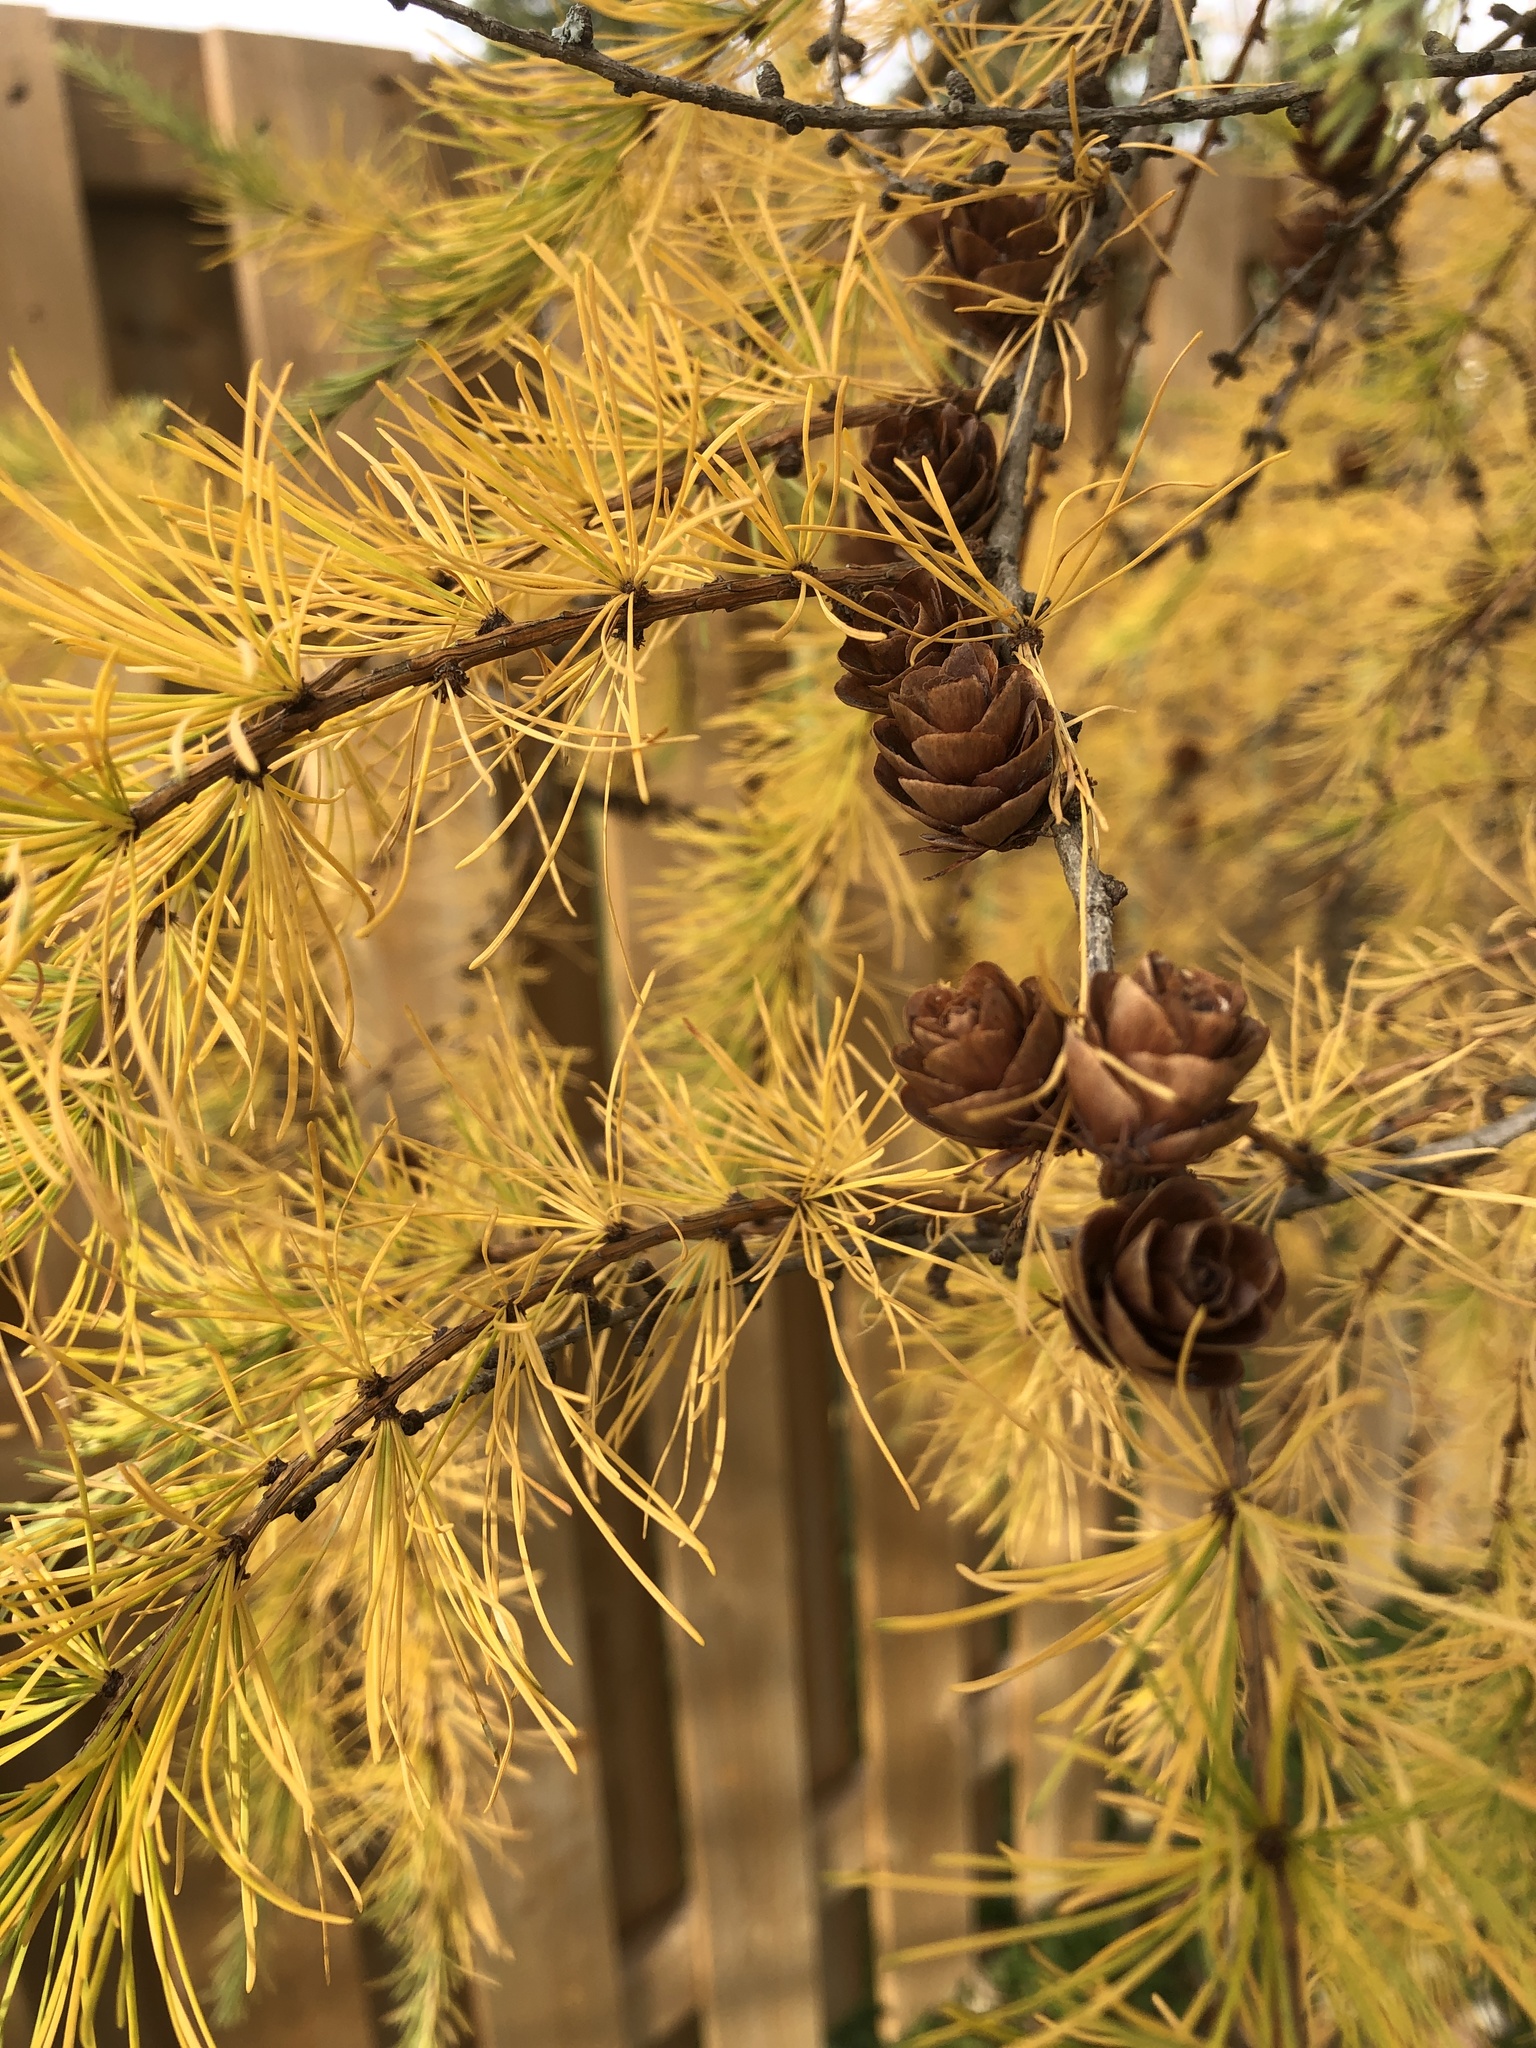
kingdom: Plantae
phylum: Tracheophyta
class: Pinopsida
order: Pinales
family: Pinaceae
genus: Larix
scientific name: Larix laricina
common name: American larch
